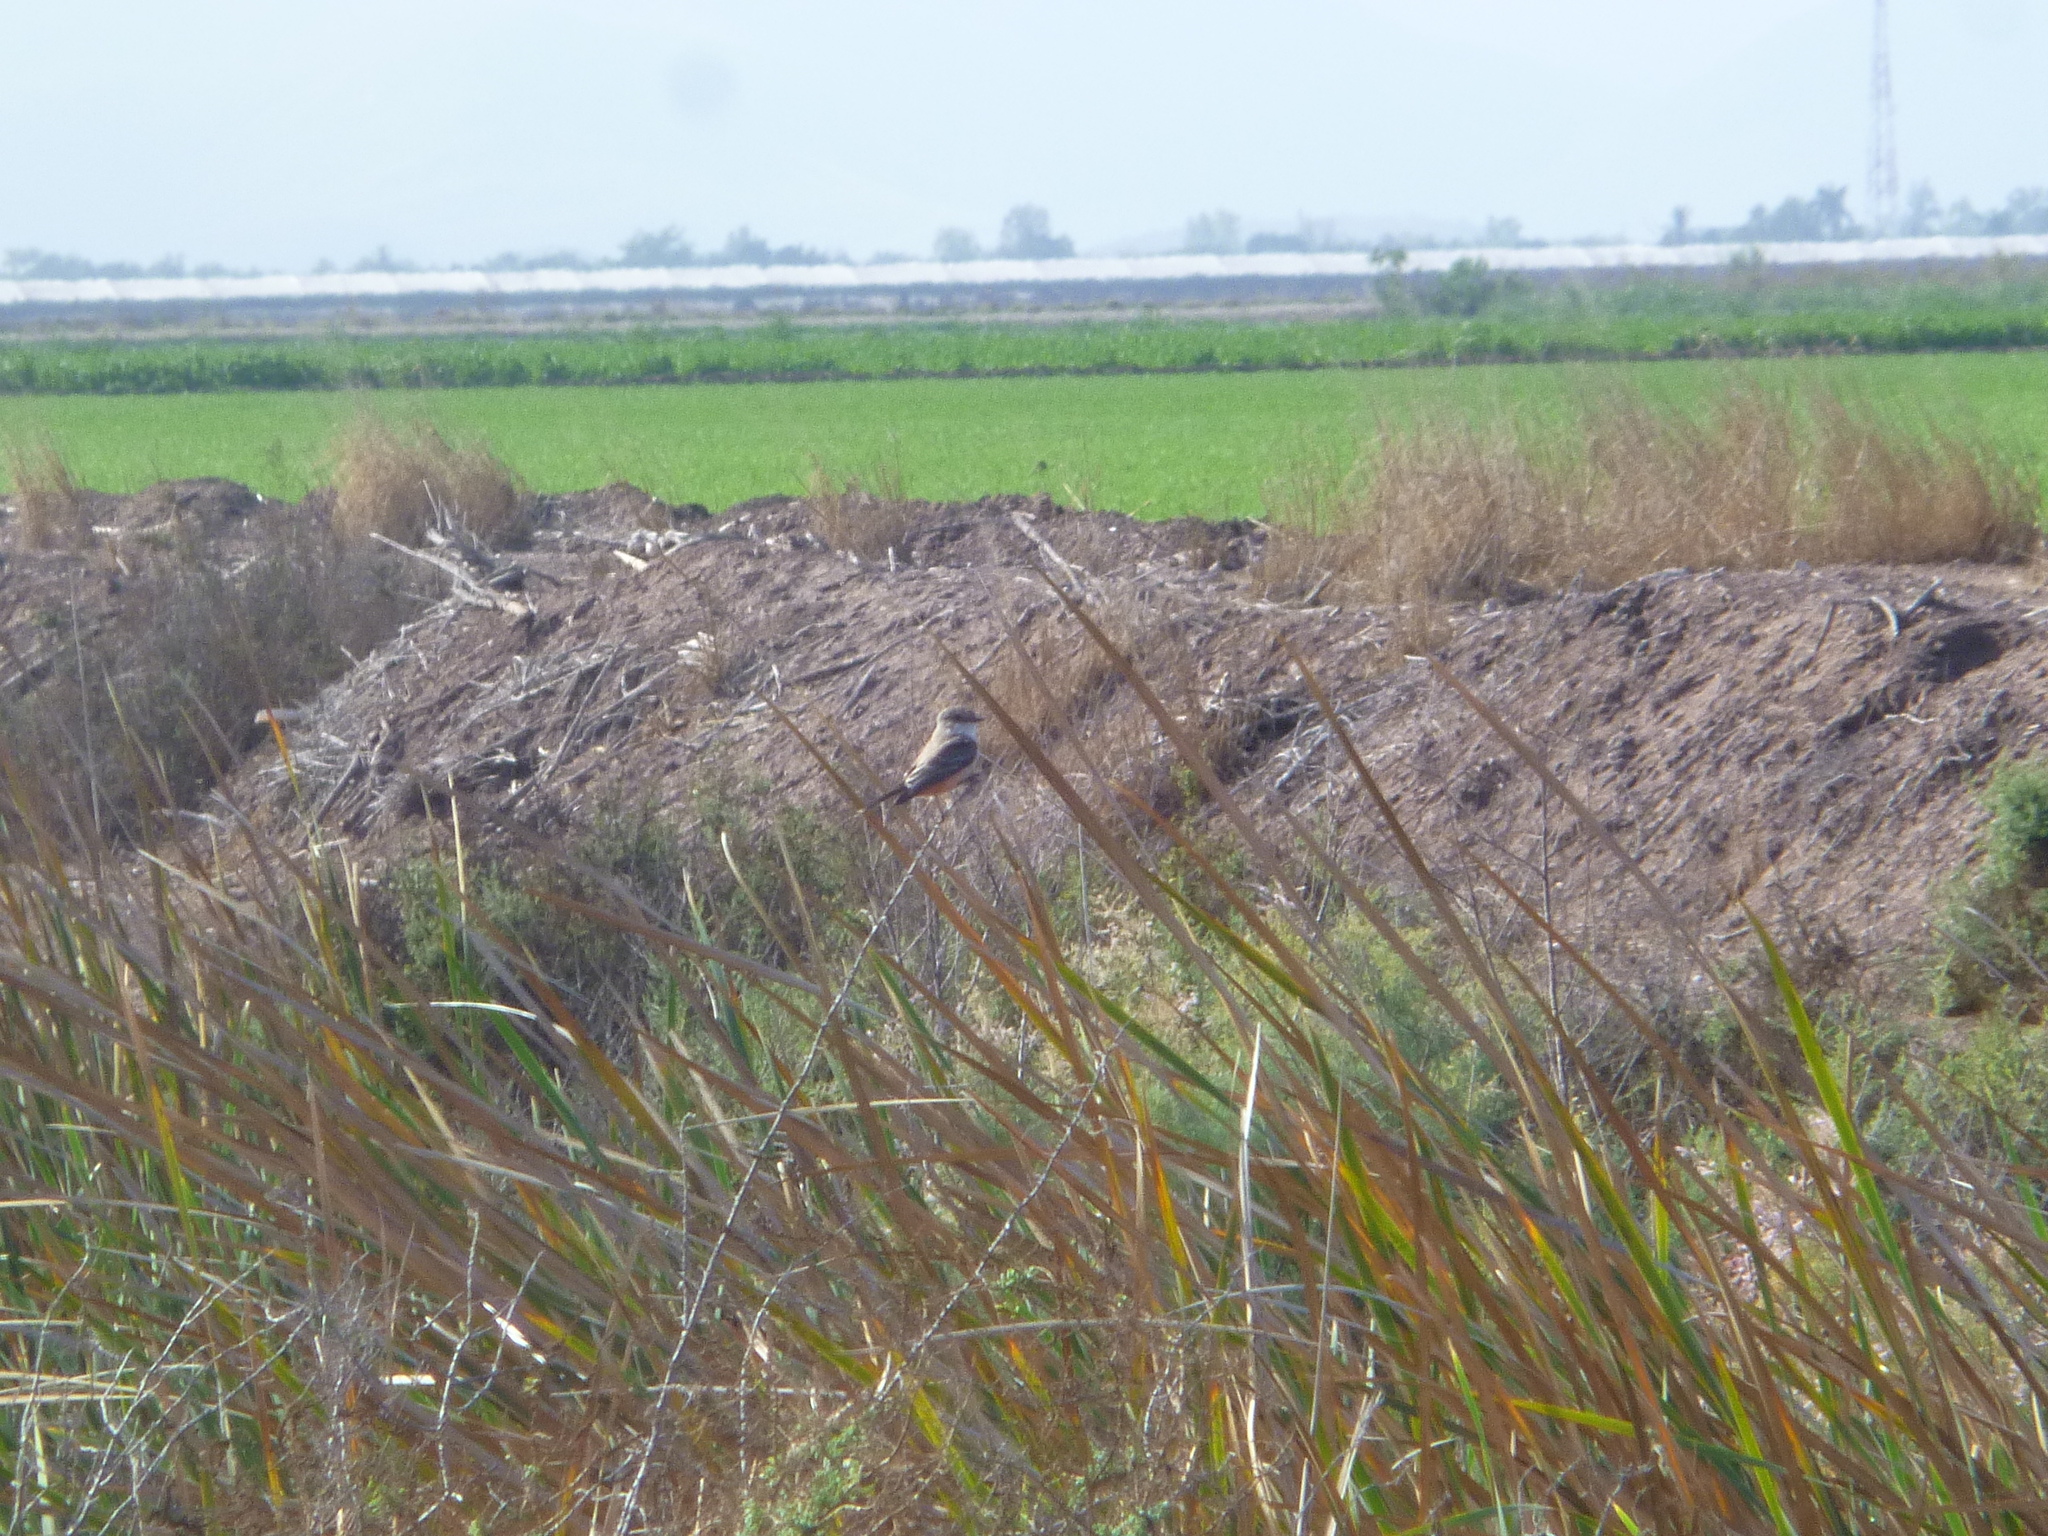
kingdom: Animalia
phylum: Chordata
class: Aves
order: Passeriformes
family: Tyrannidae
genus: Pyrocephalus
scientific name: Pyrocephalus rubinus
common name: Vermilion flycatcher
